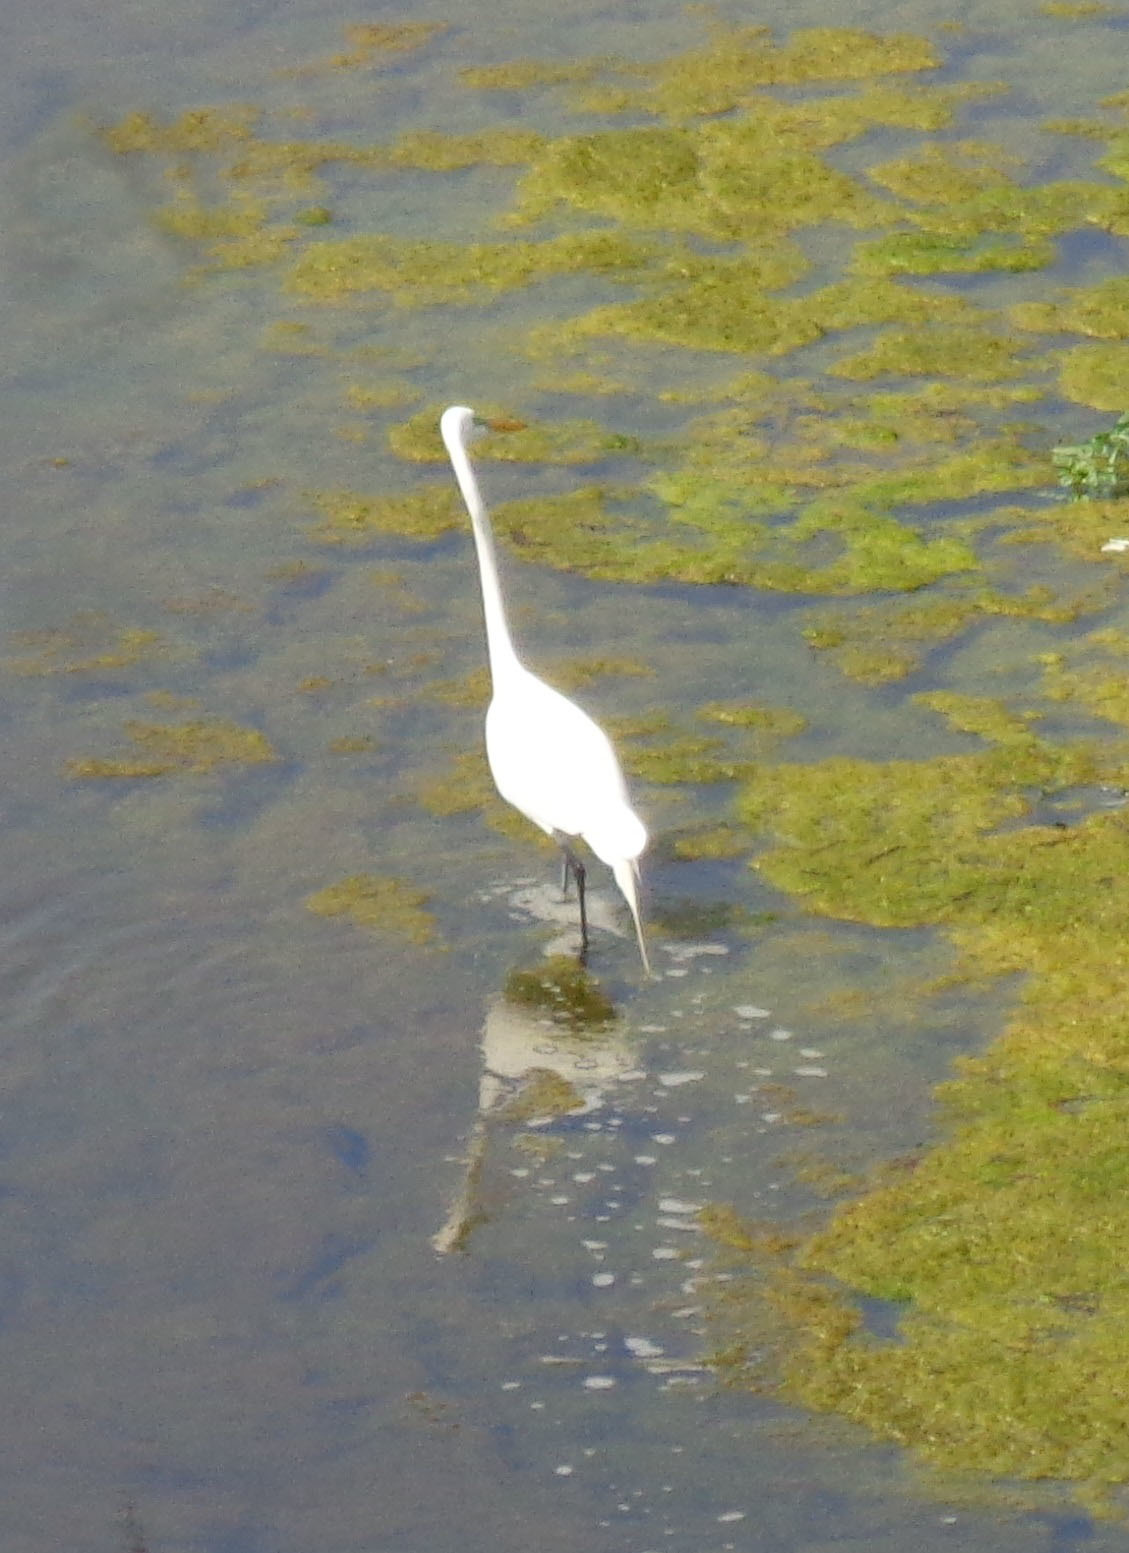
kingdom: Animalia
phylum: Chordata
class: Aves
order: Pelecaniformes
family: Ardeidae
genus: Ardea
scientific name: Ardea alba
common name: Great egret
